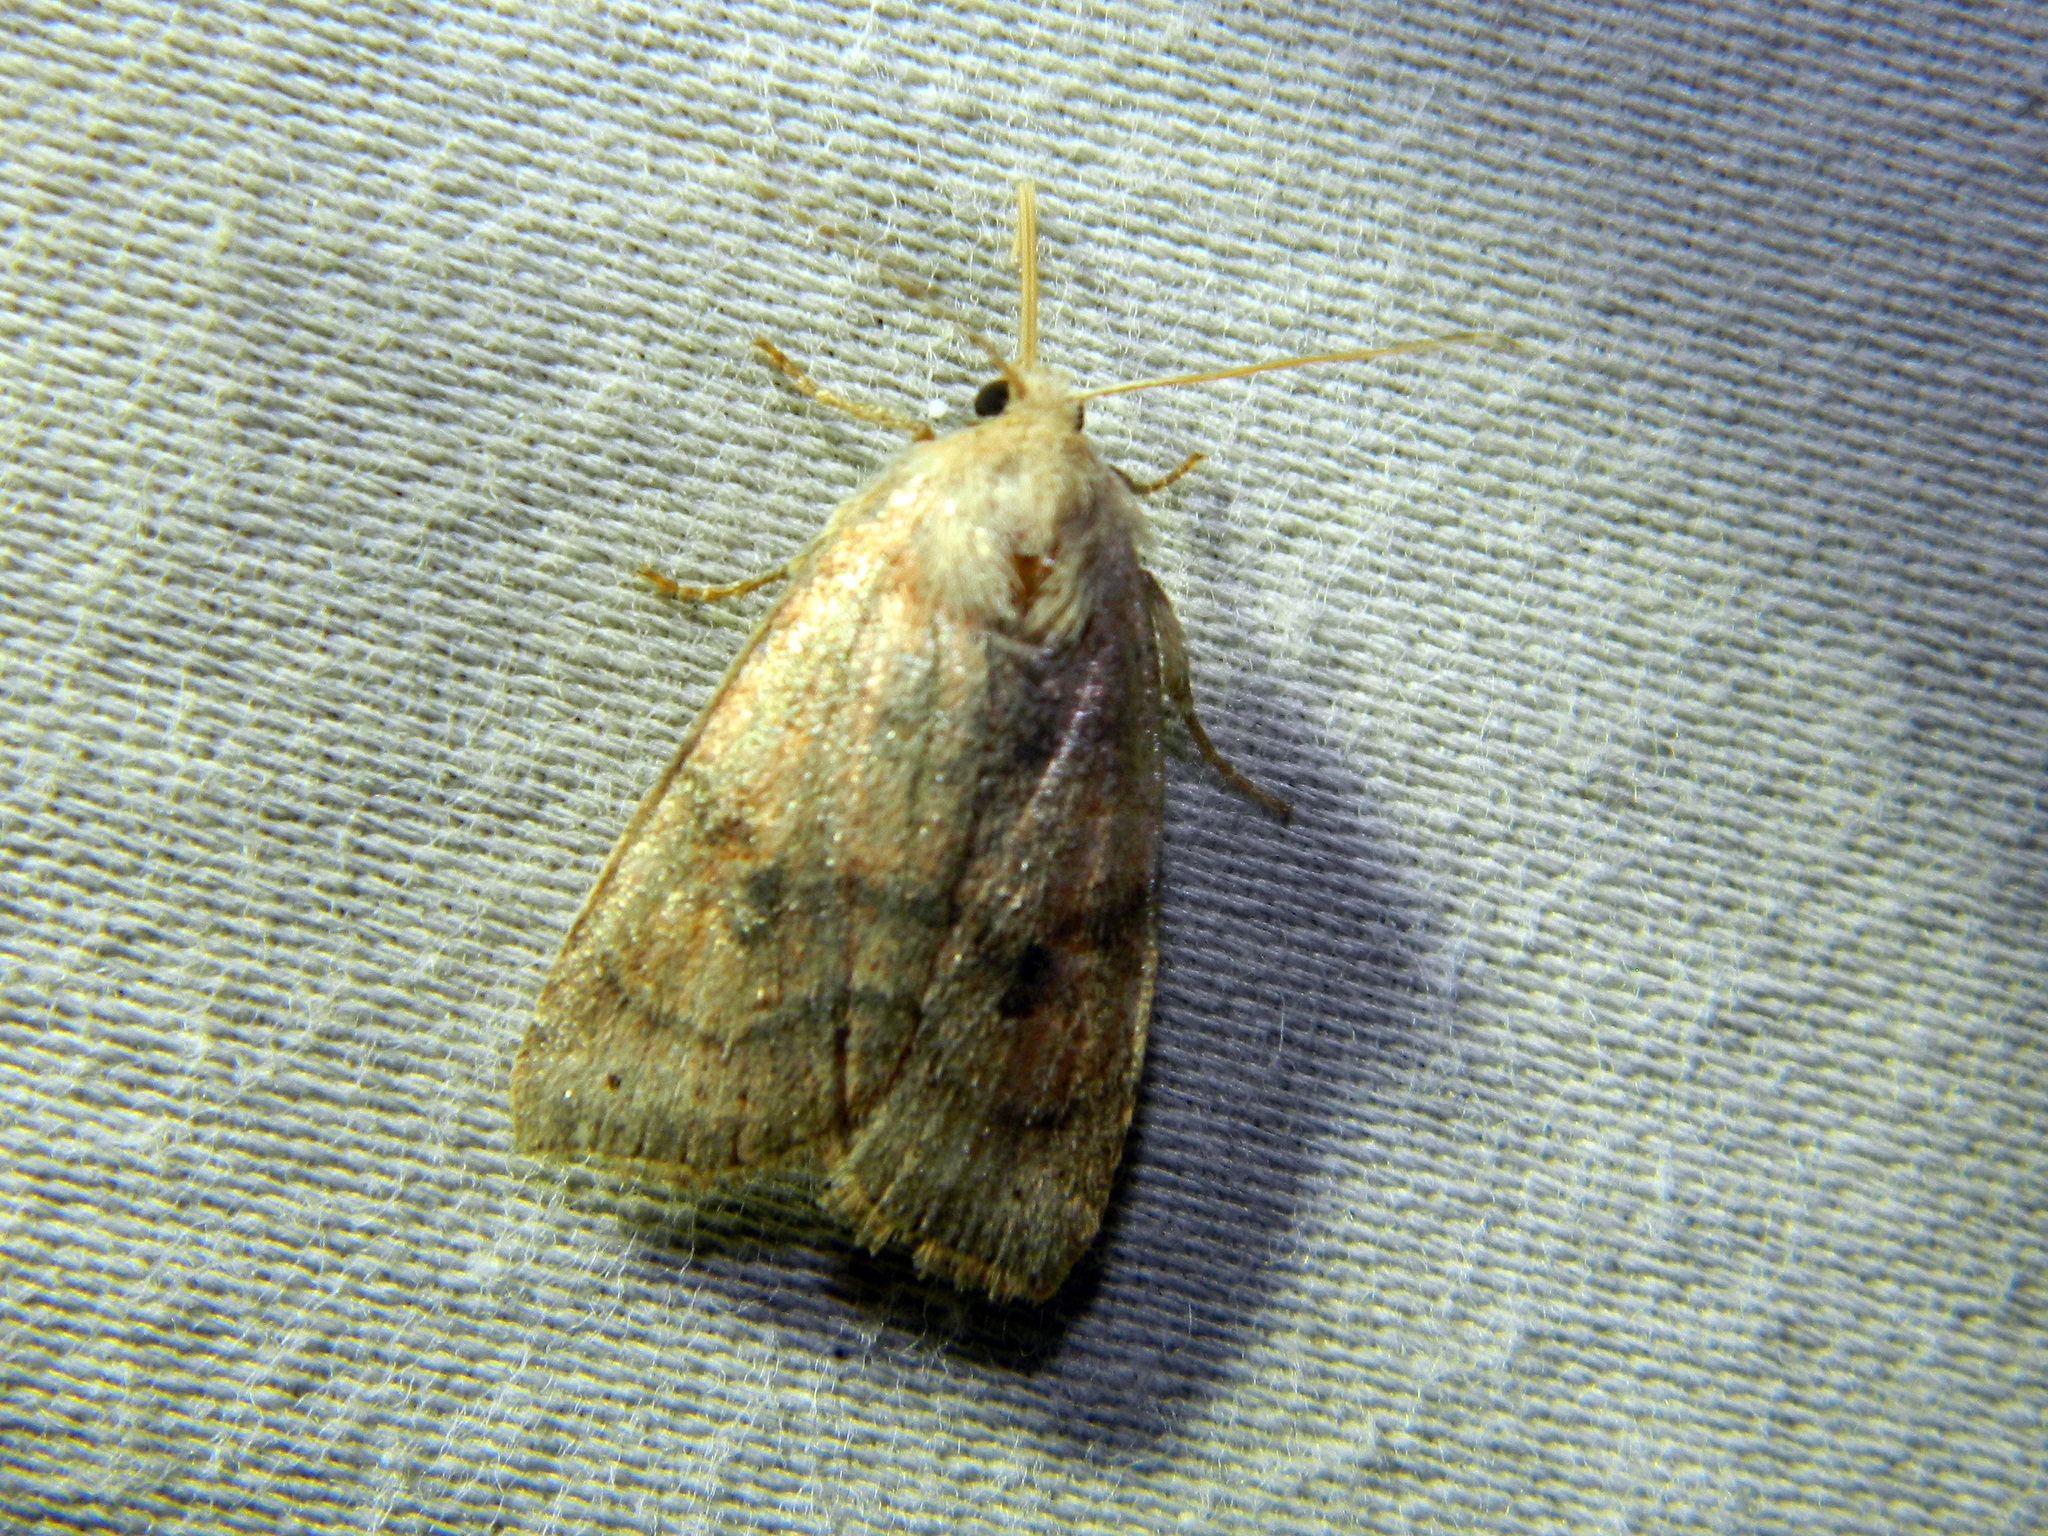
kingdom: Animalia
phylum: Arthropoda
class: Insecta
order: Lepidoptera
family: Noctuidae
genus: Anathix
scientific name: Anathix puta
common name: Puta sallow
